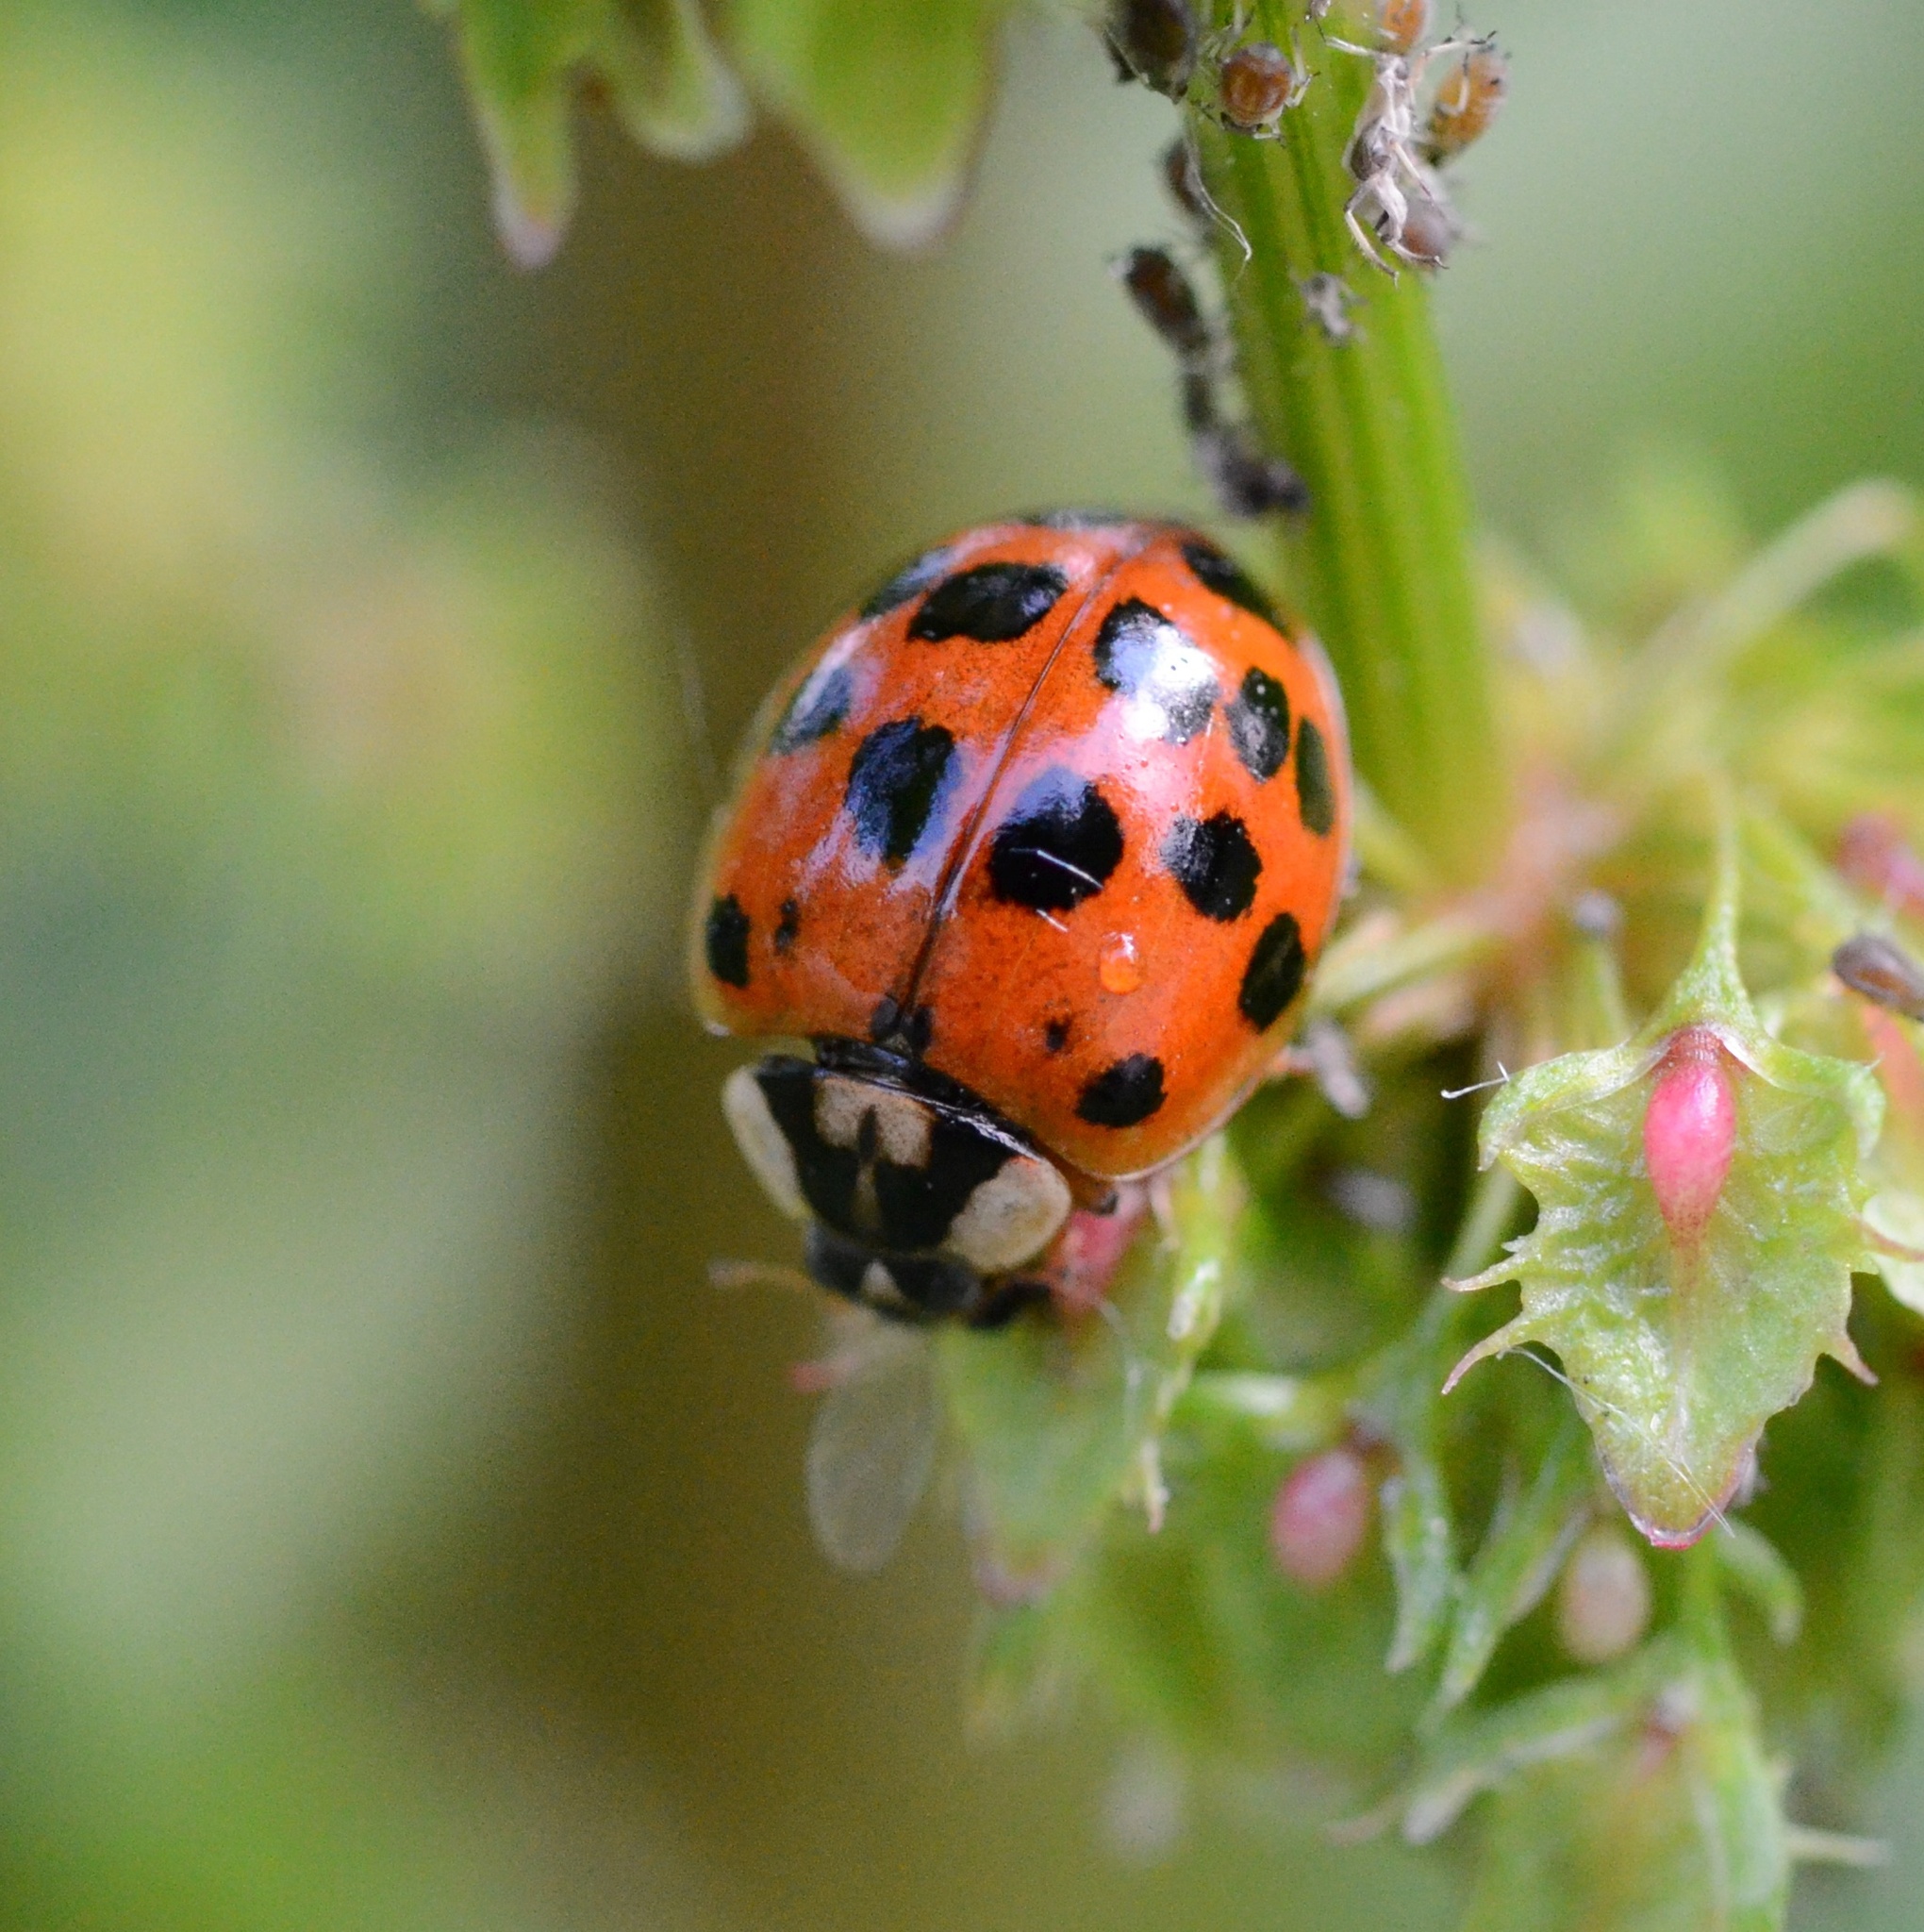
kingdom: Animalia
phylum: Arthropoda
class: Insecta
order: Coleoptera
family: Coccinellidae
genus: Harmonia
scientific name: Harmonia axyridis
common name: Harlequin ladybird
